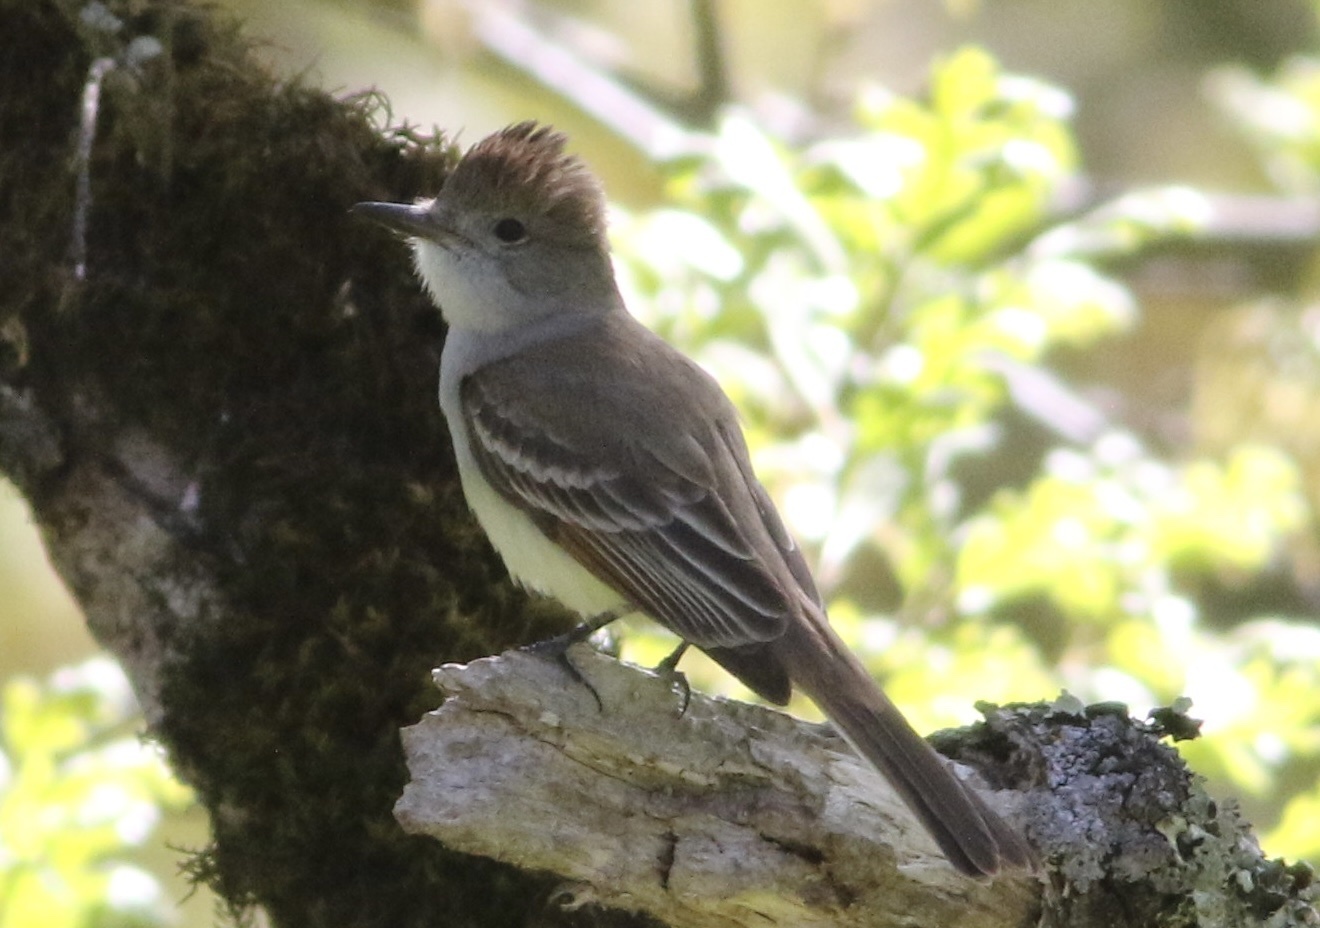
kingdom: Animalia
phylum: Chordata
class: Aves
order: Passeriformes
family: Tyrannidae
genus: Myiarchus
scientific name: Myiarchus cinerascens
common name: Ash-throated flycatcher
